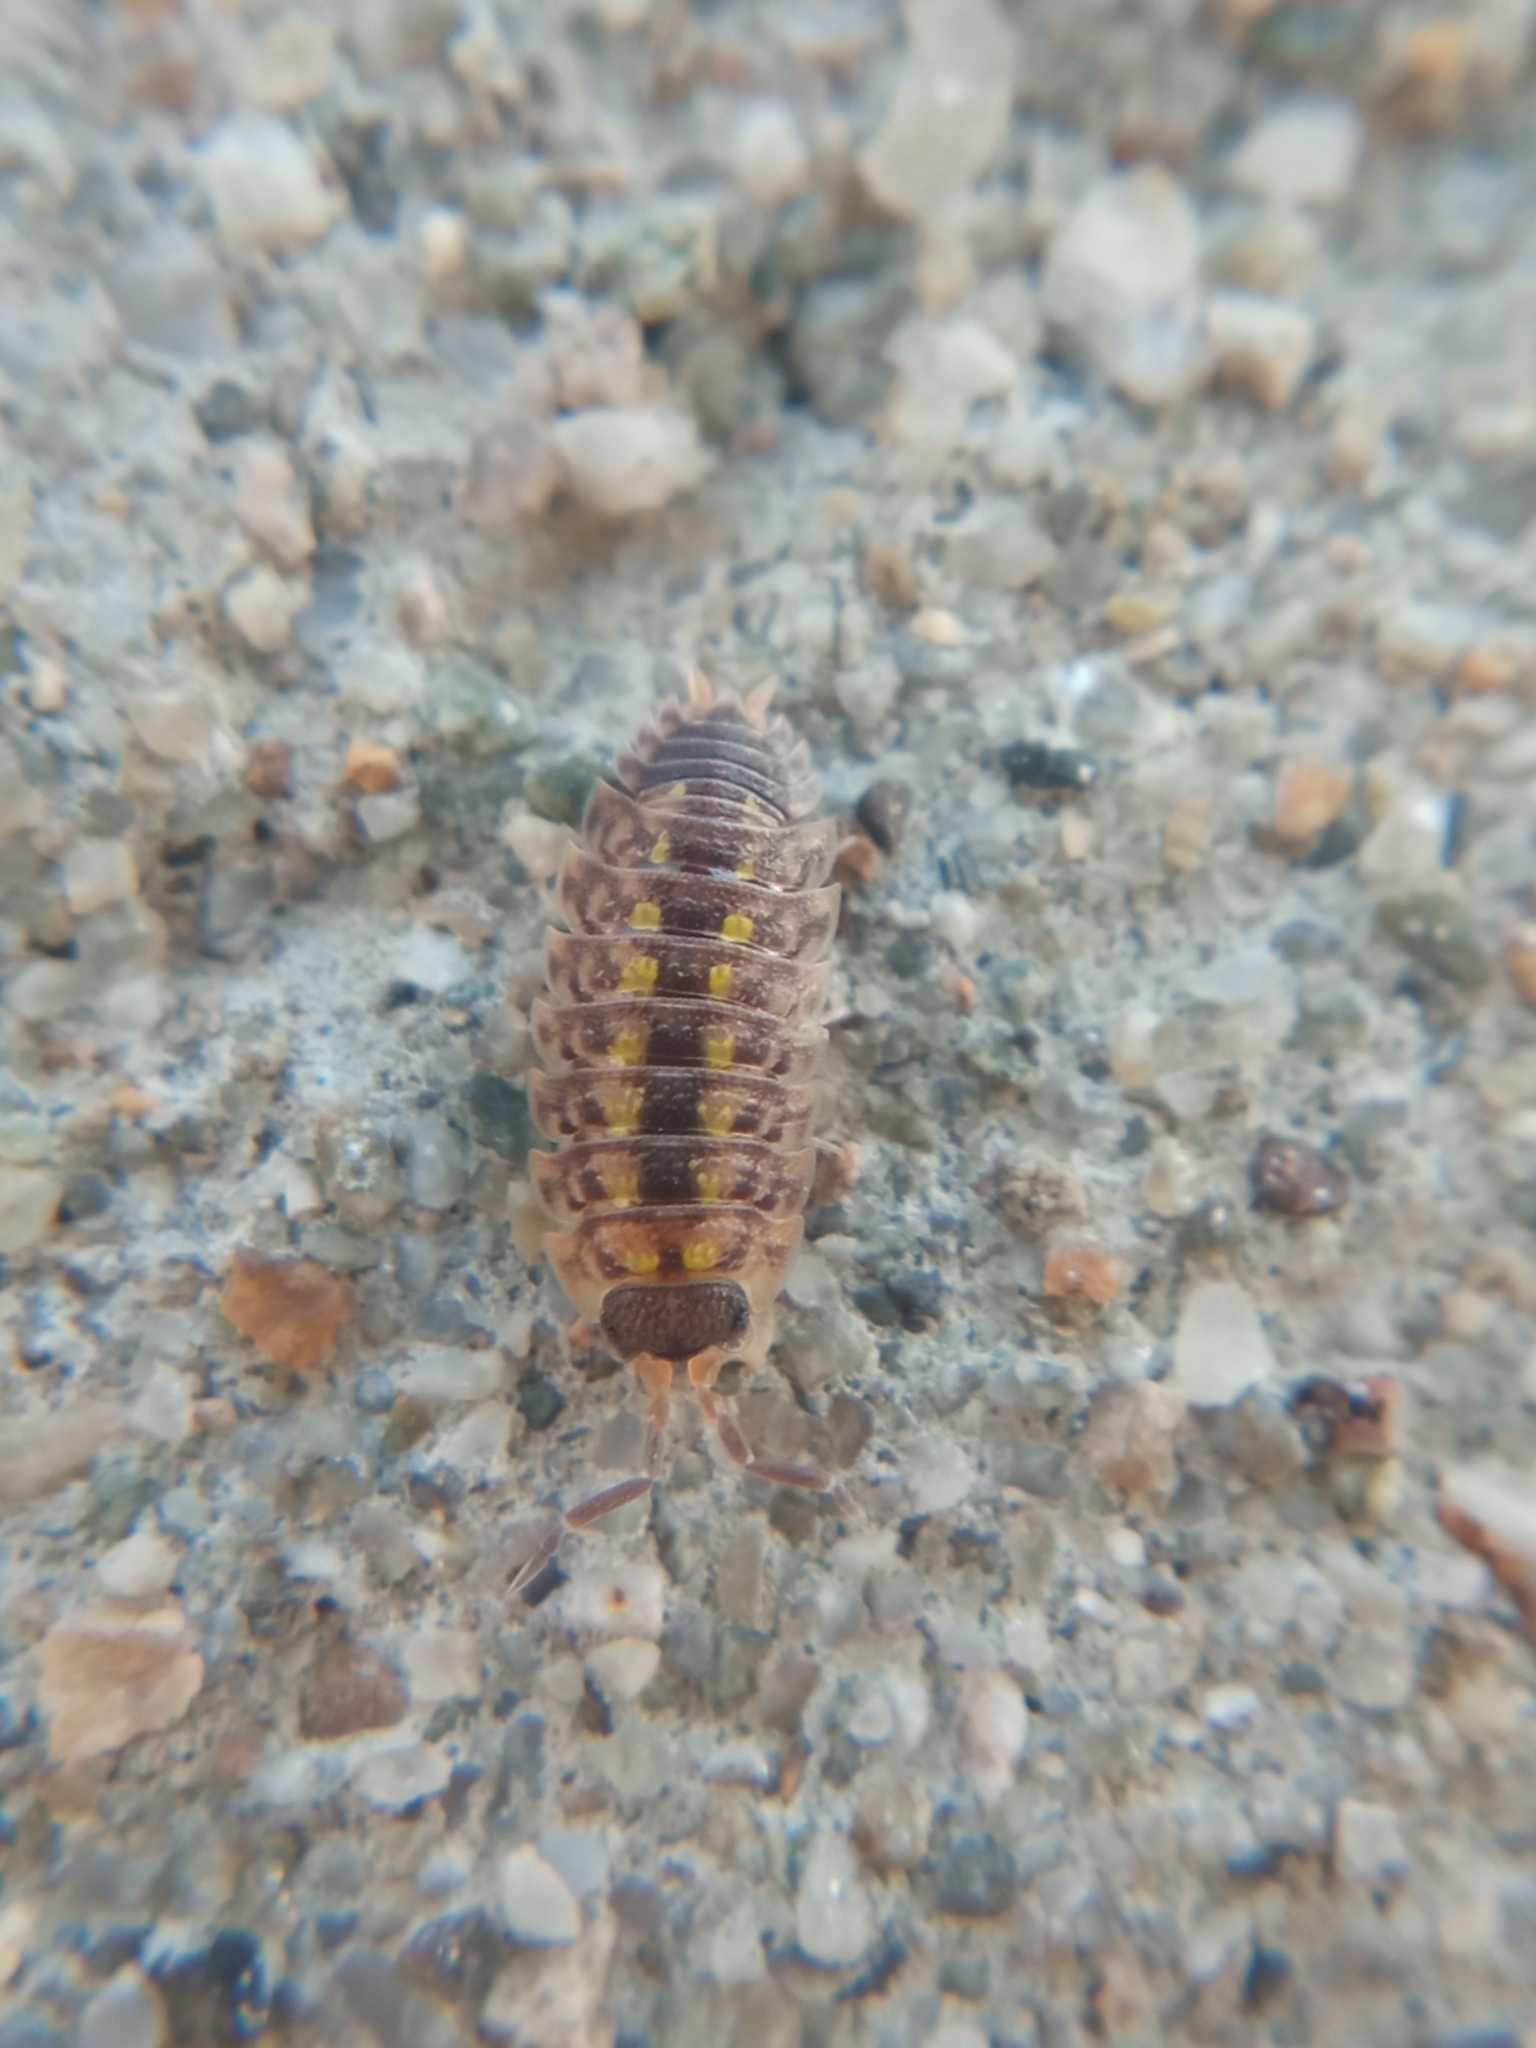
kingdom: Animalia
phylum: Arthropoda
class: Malacostraca
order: Isopoda
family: Porcellionidae
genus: Porcellio
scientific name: Porcellio spinicornis
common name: Painted woodlouse
